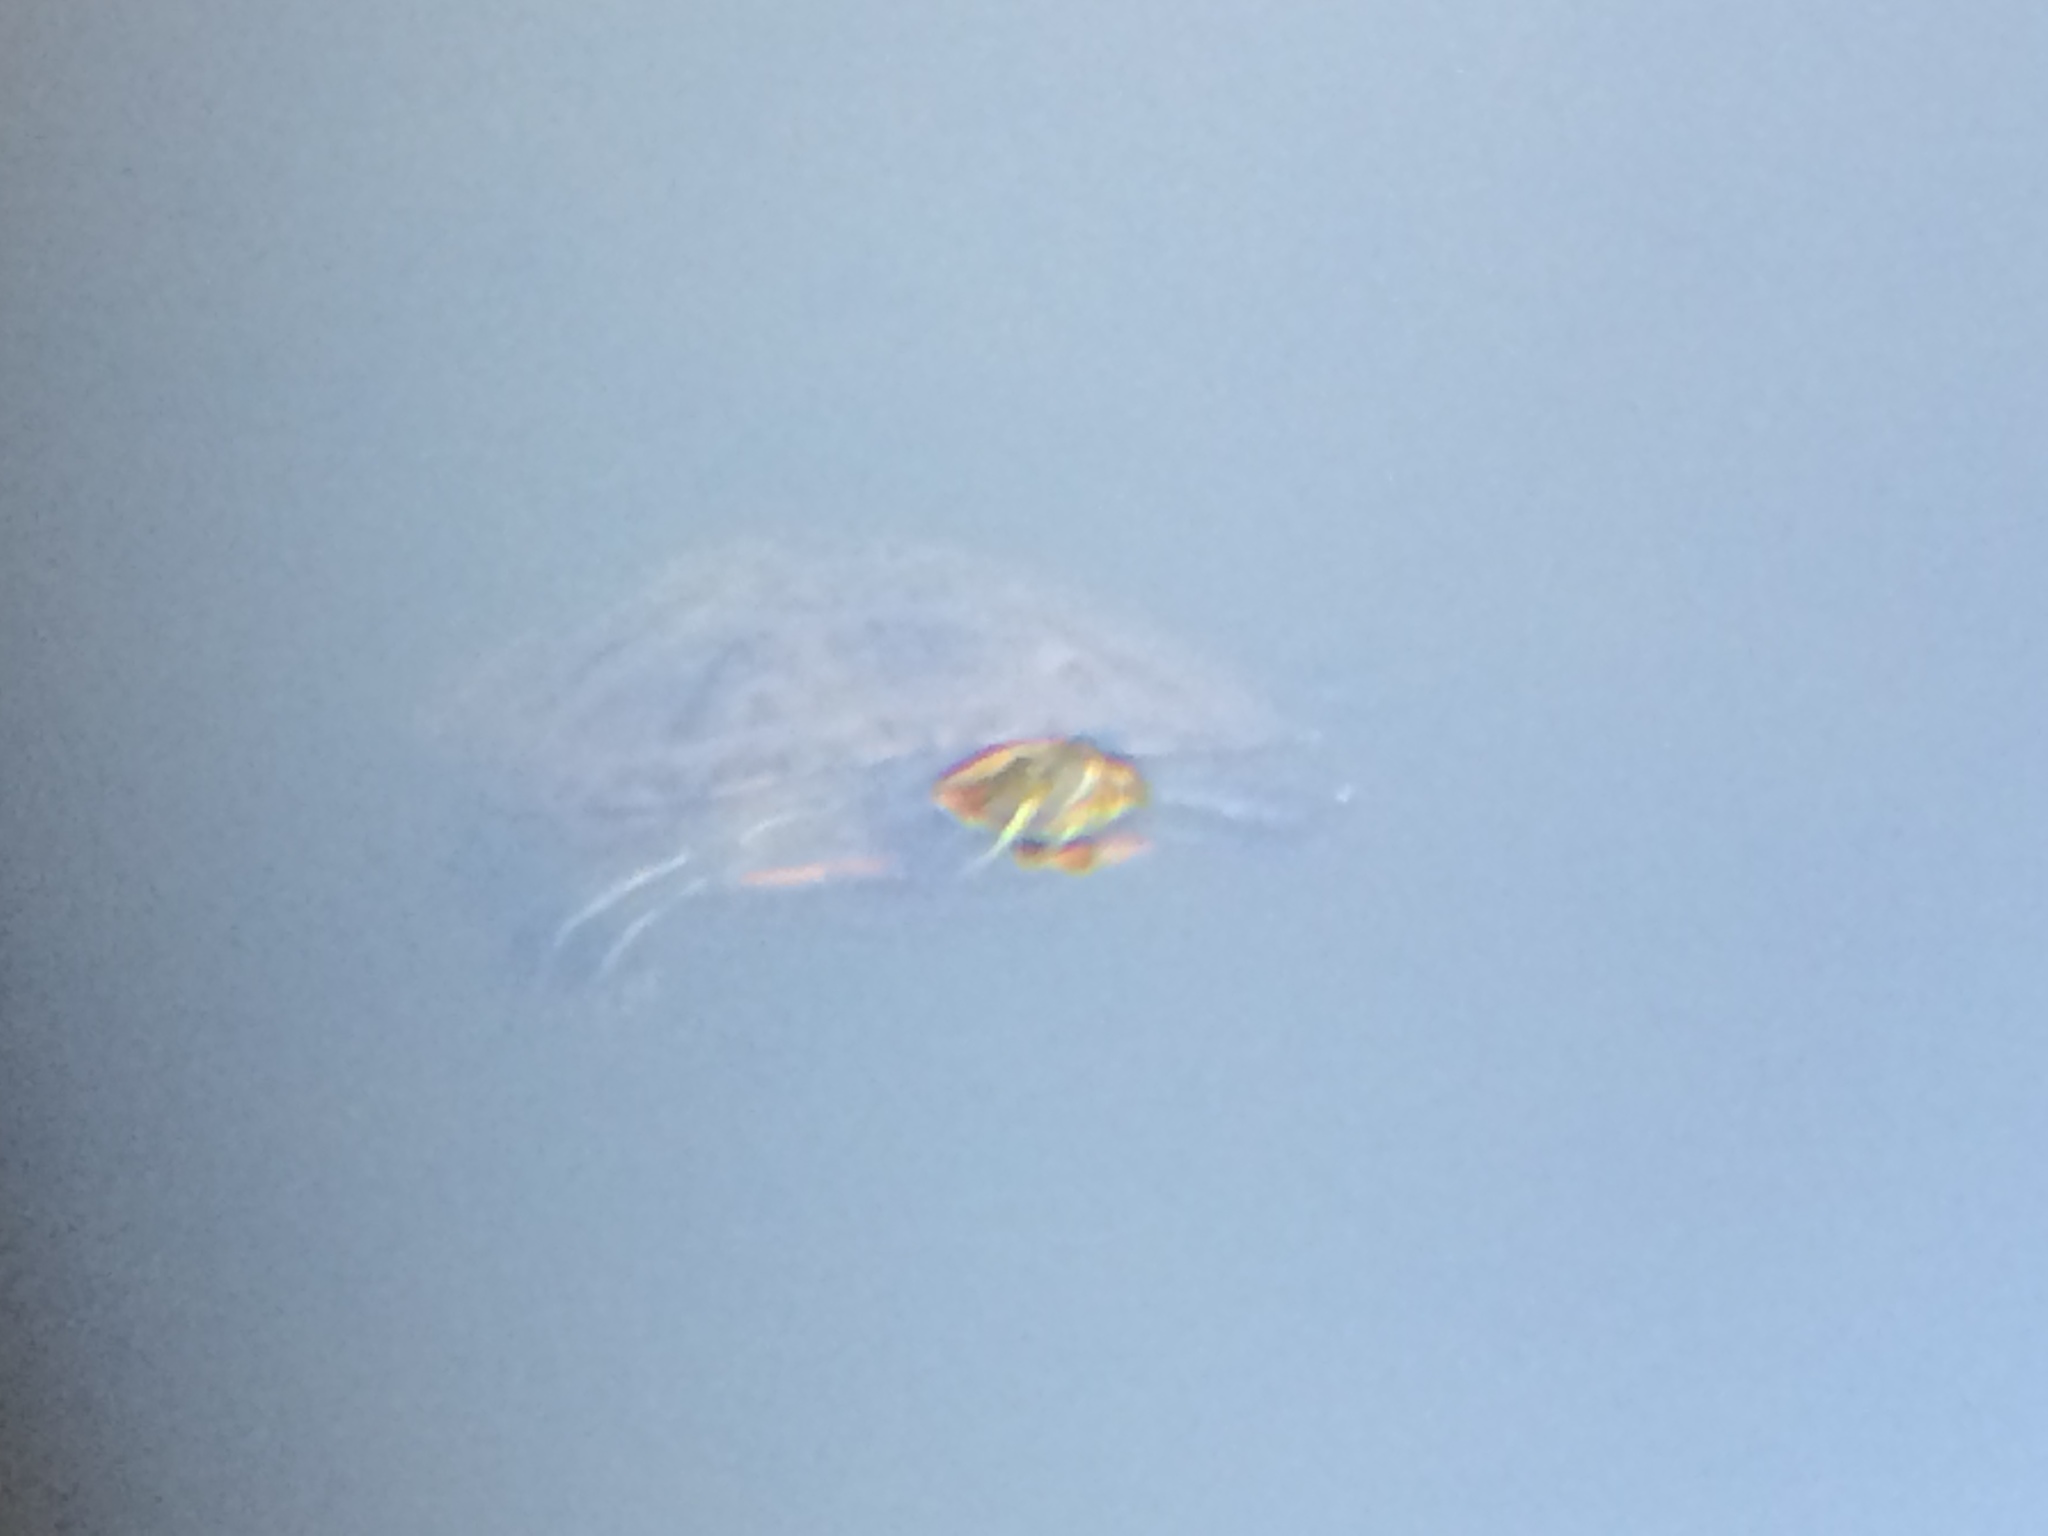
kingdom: Animalia
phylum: Chordata
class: Testudines
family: Emydidae
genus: Trachemys
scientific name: Trachemys scripta
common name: Slider
